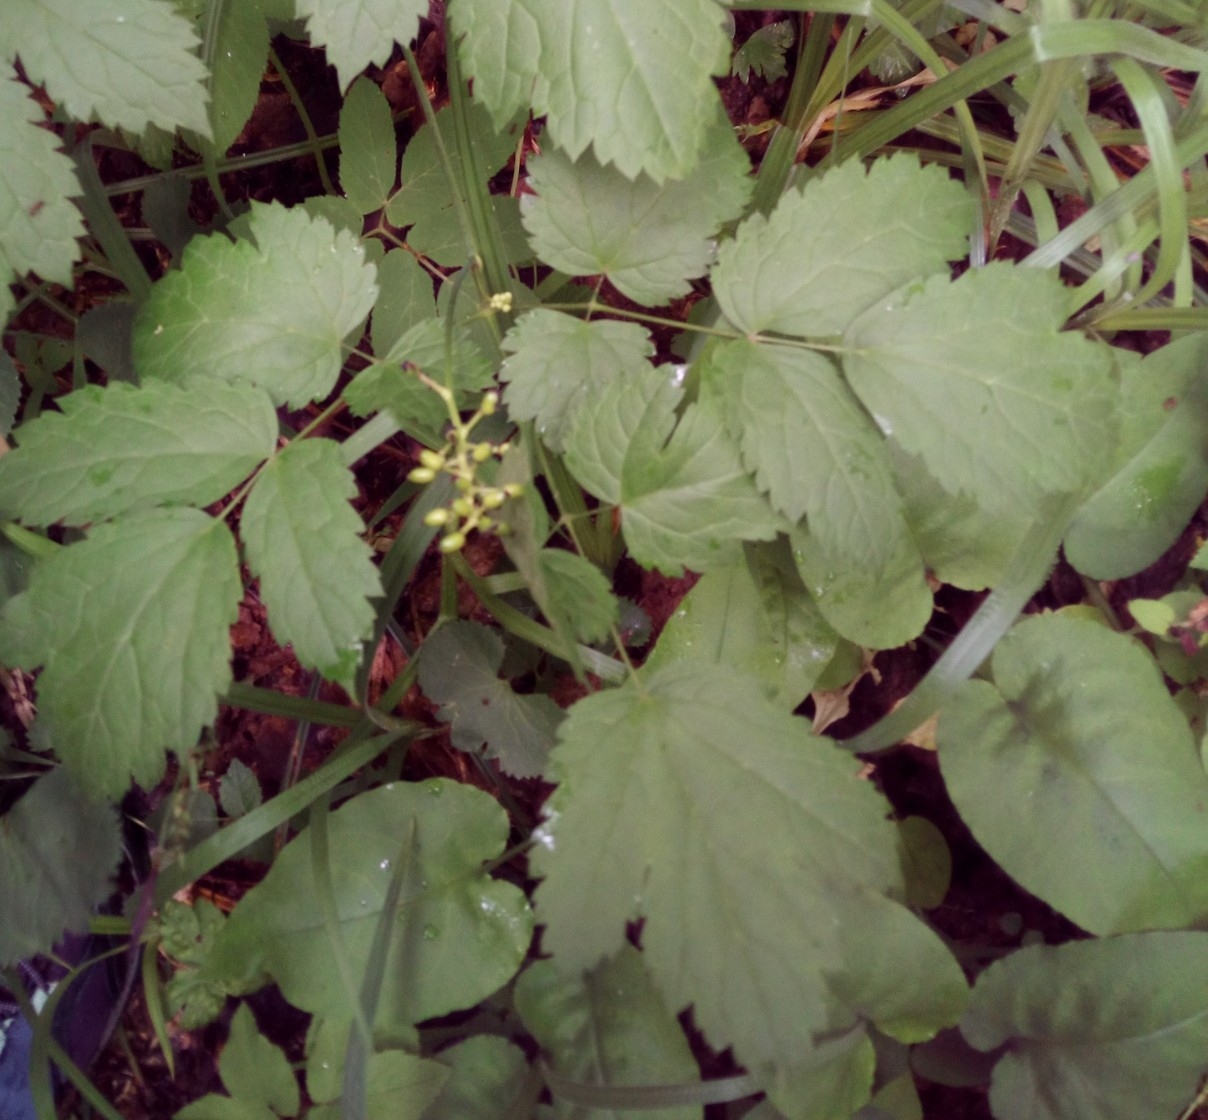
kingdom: Plantae
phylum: Tracheophyta
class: Magnoliopsida
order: Ranunculales
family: Ranunculaceae
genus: Actaea
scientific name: Actaea spicata
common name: Baneberry
